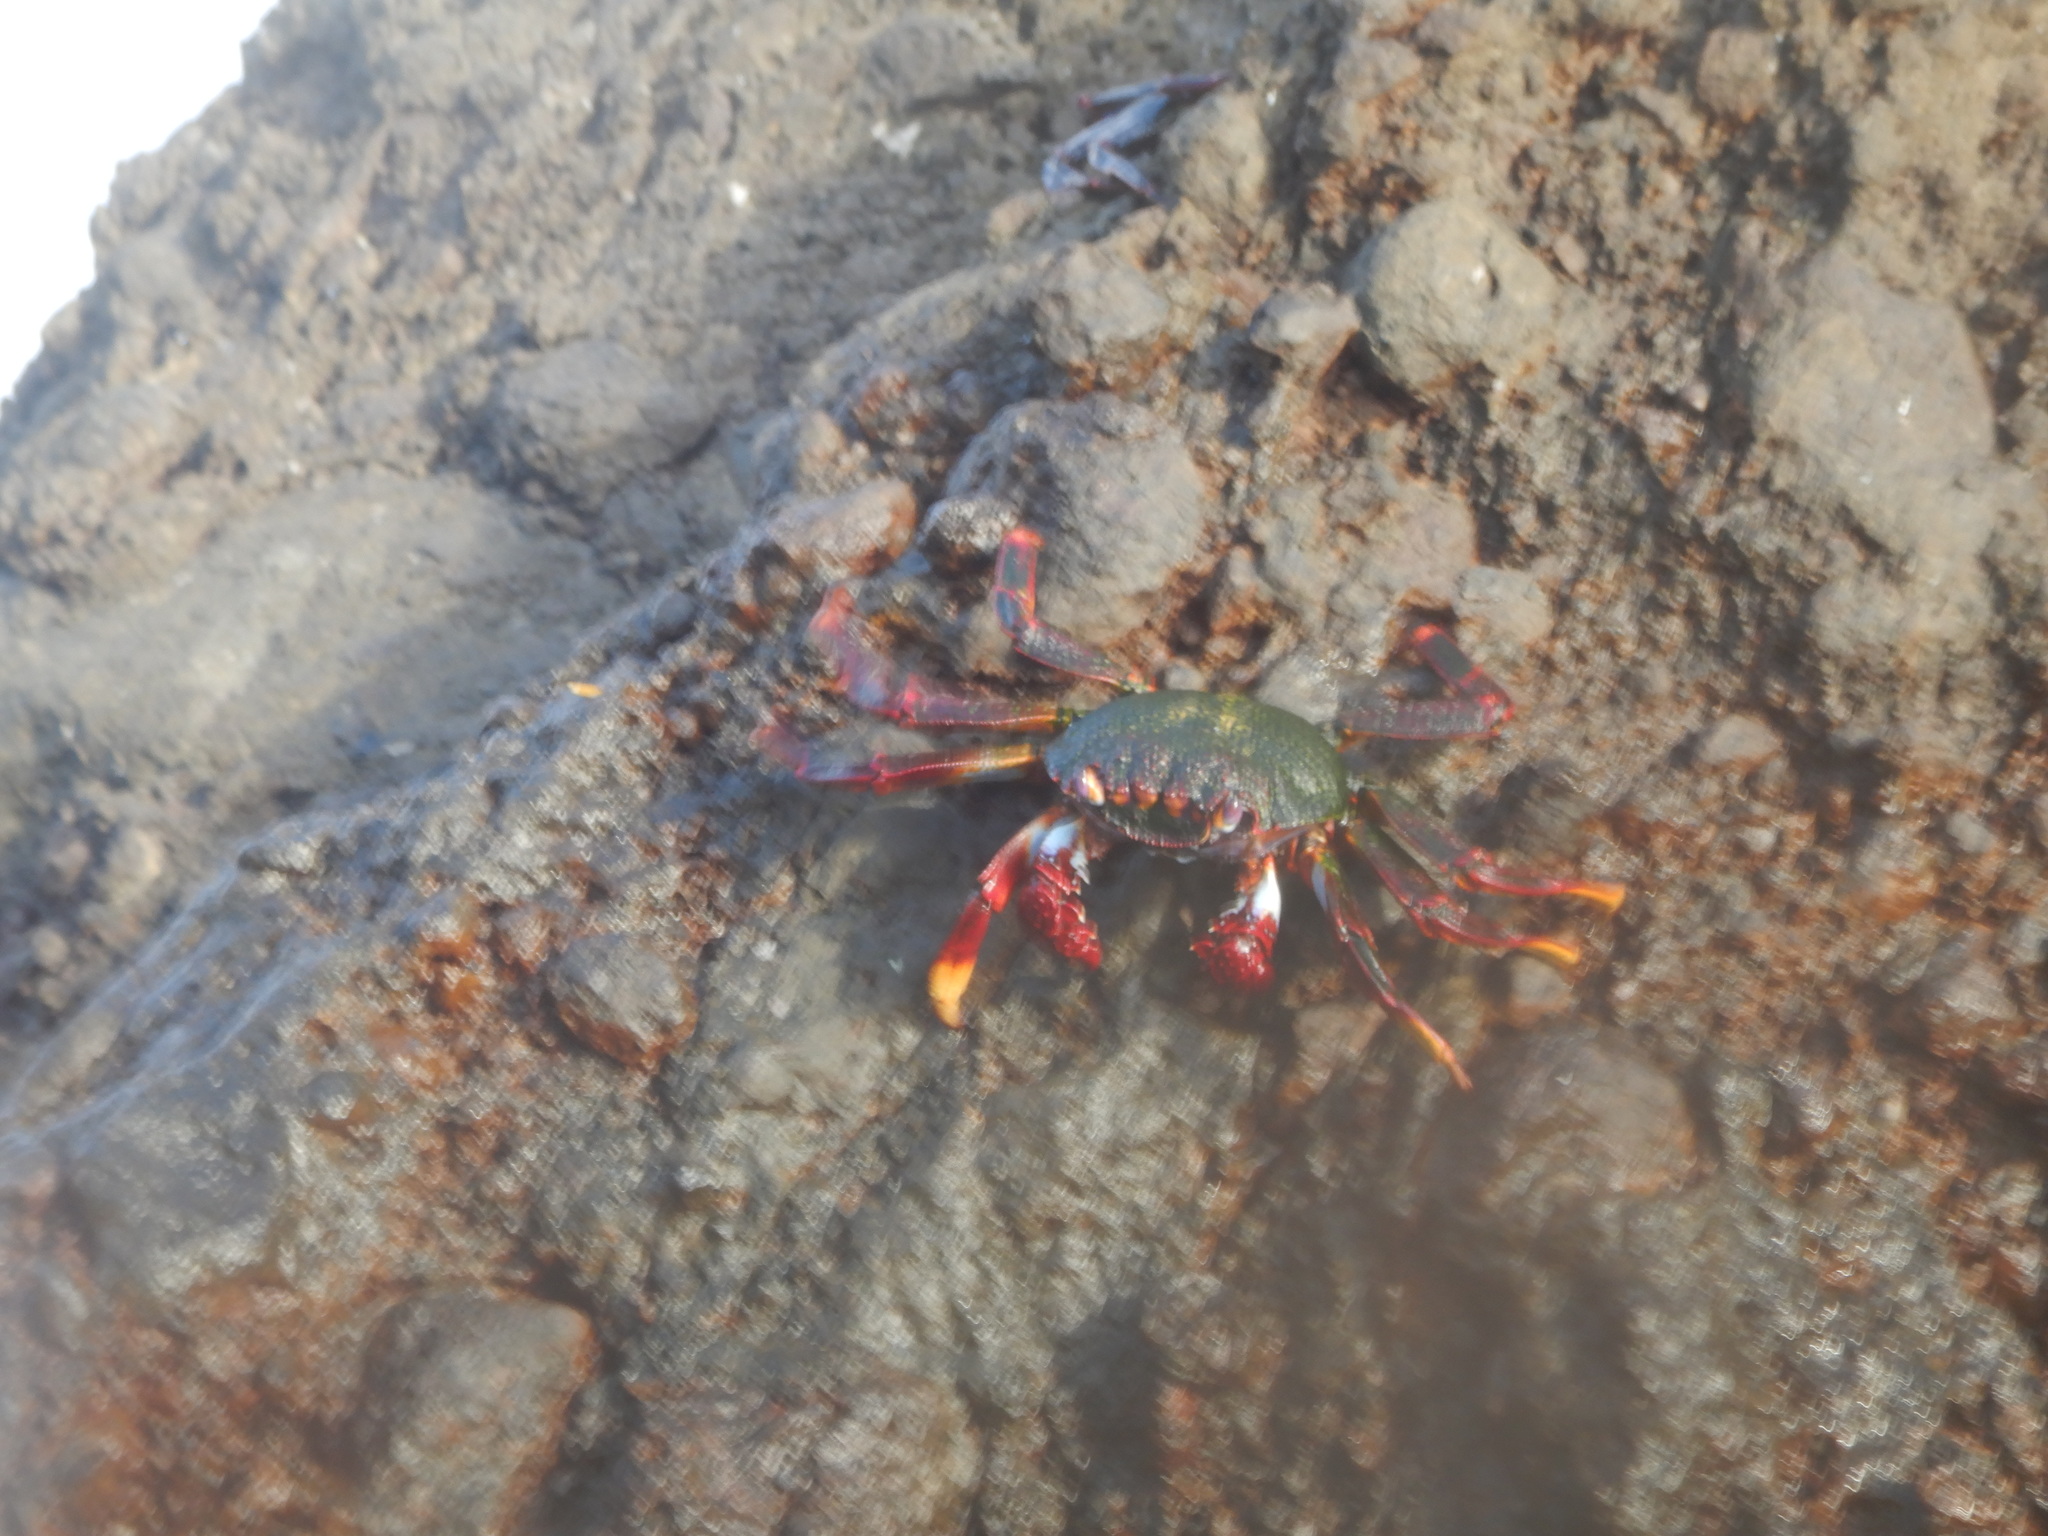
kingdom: Animalia
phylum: Arthropoda
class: Malacostraca
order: Decapoda
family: Grapsidae
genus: Grapsus
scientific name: Grapsus adscensionis
